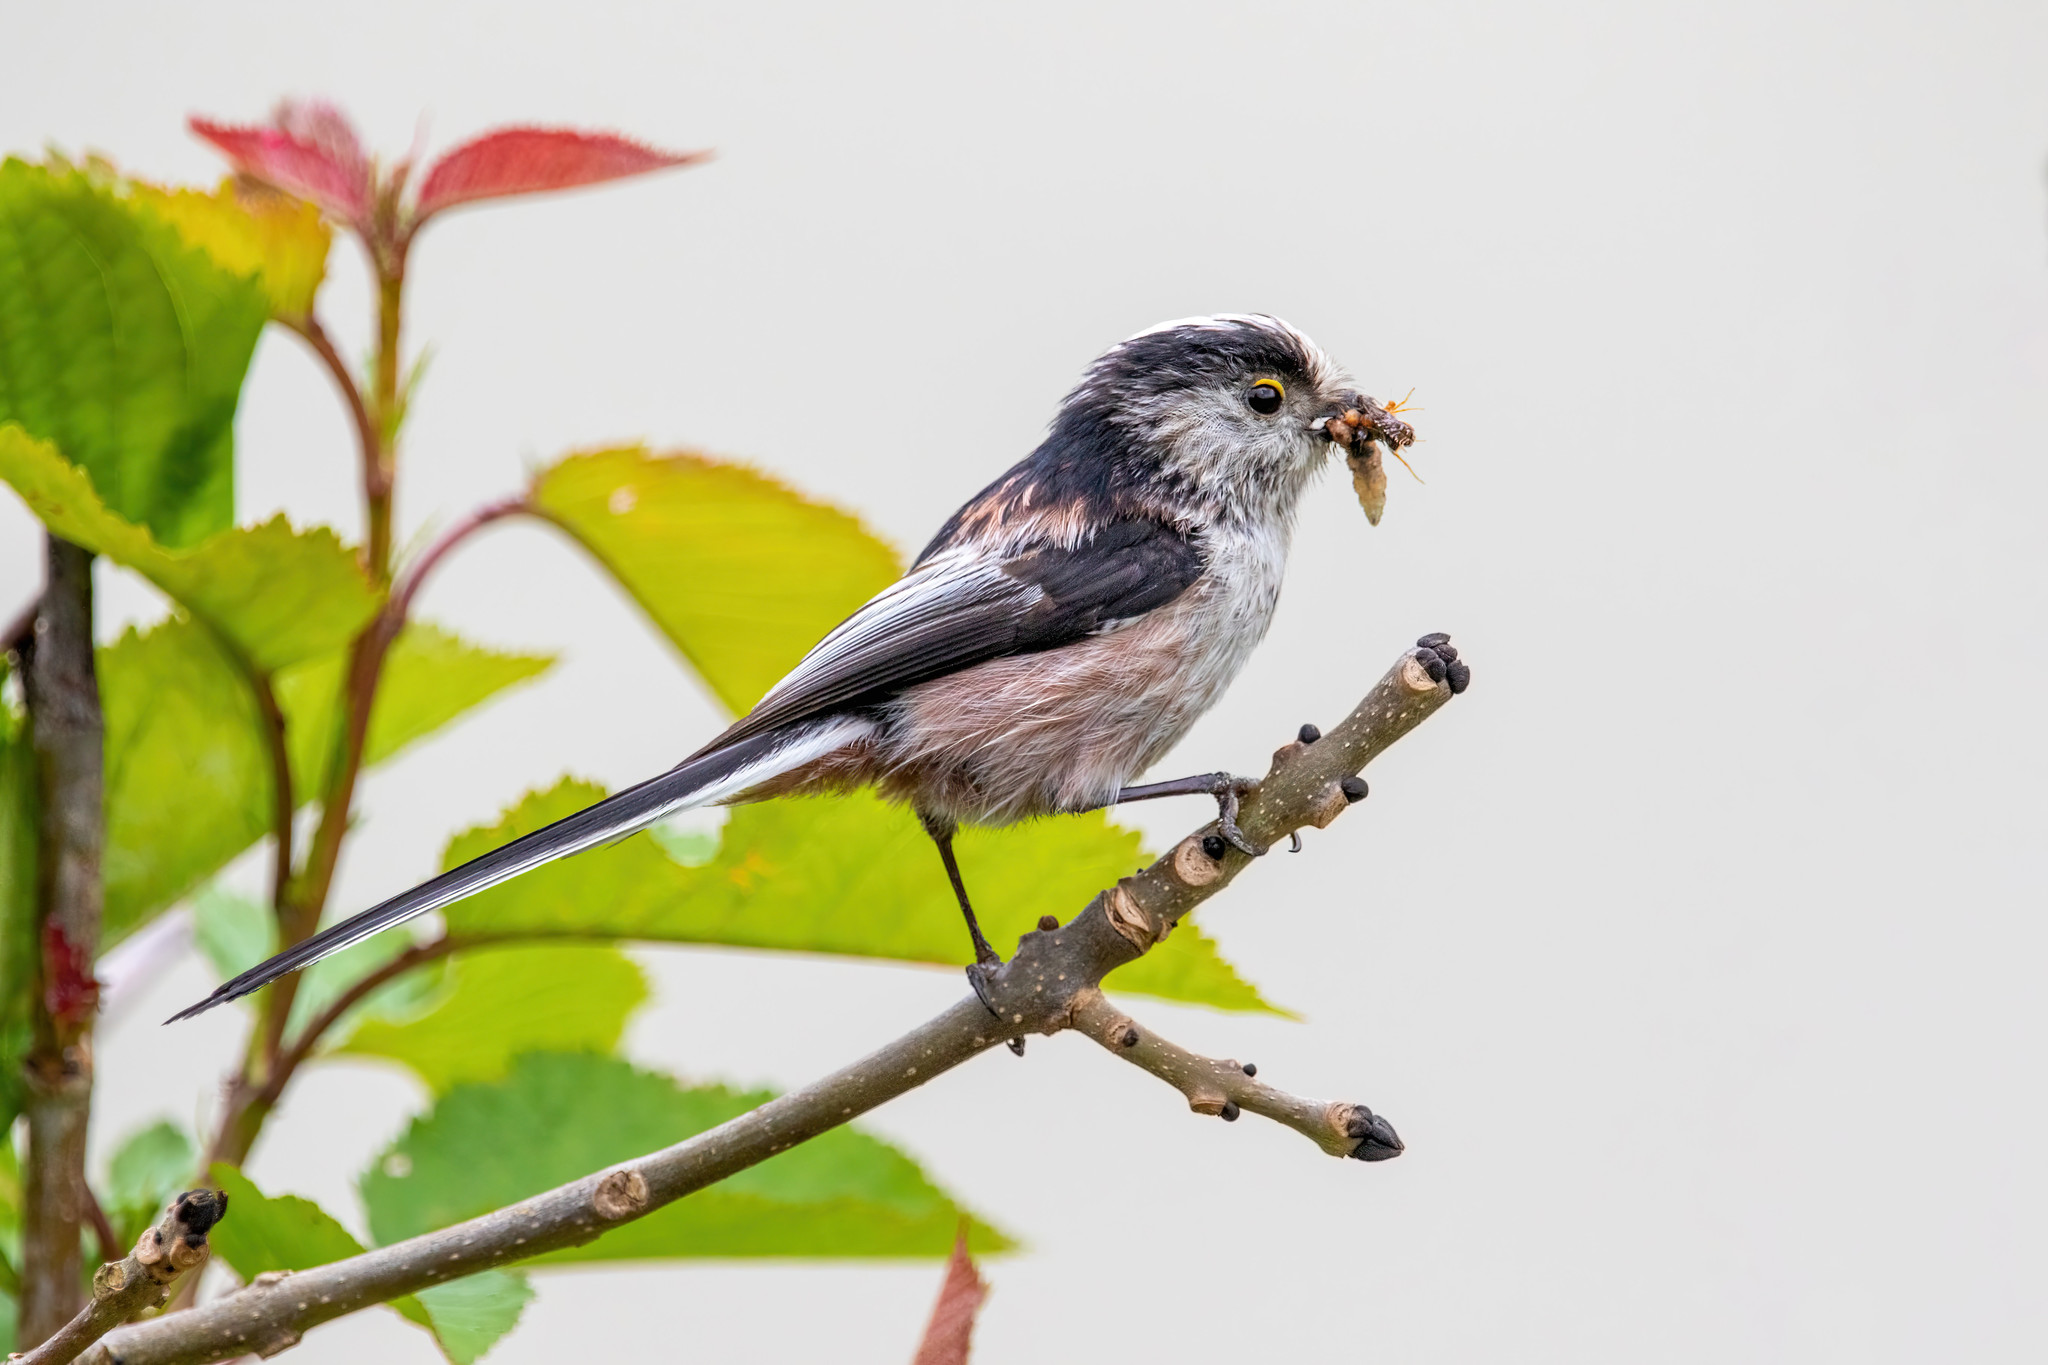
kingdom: Animalia
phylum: Chordata
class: Aves
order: Passeriformes
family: Aegithalidae
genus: Aegithalos
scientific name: Aegithalos caudatus
